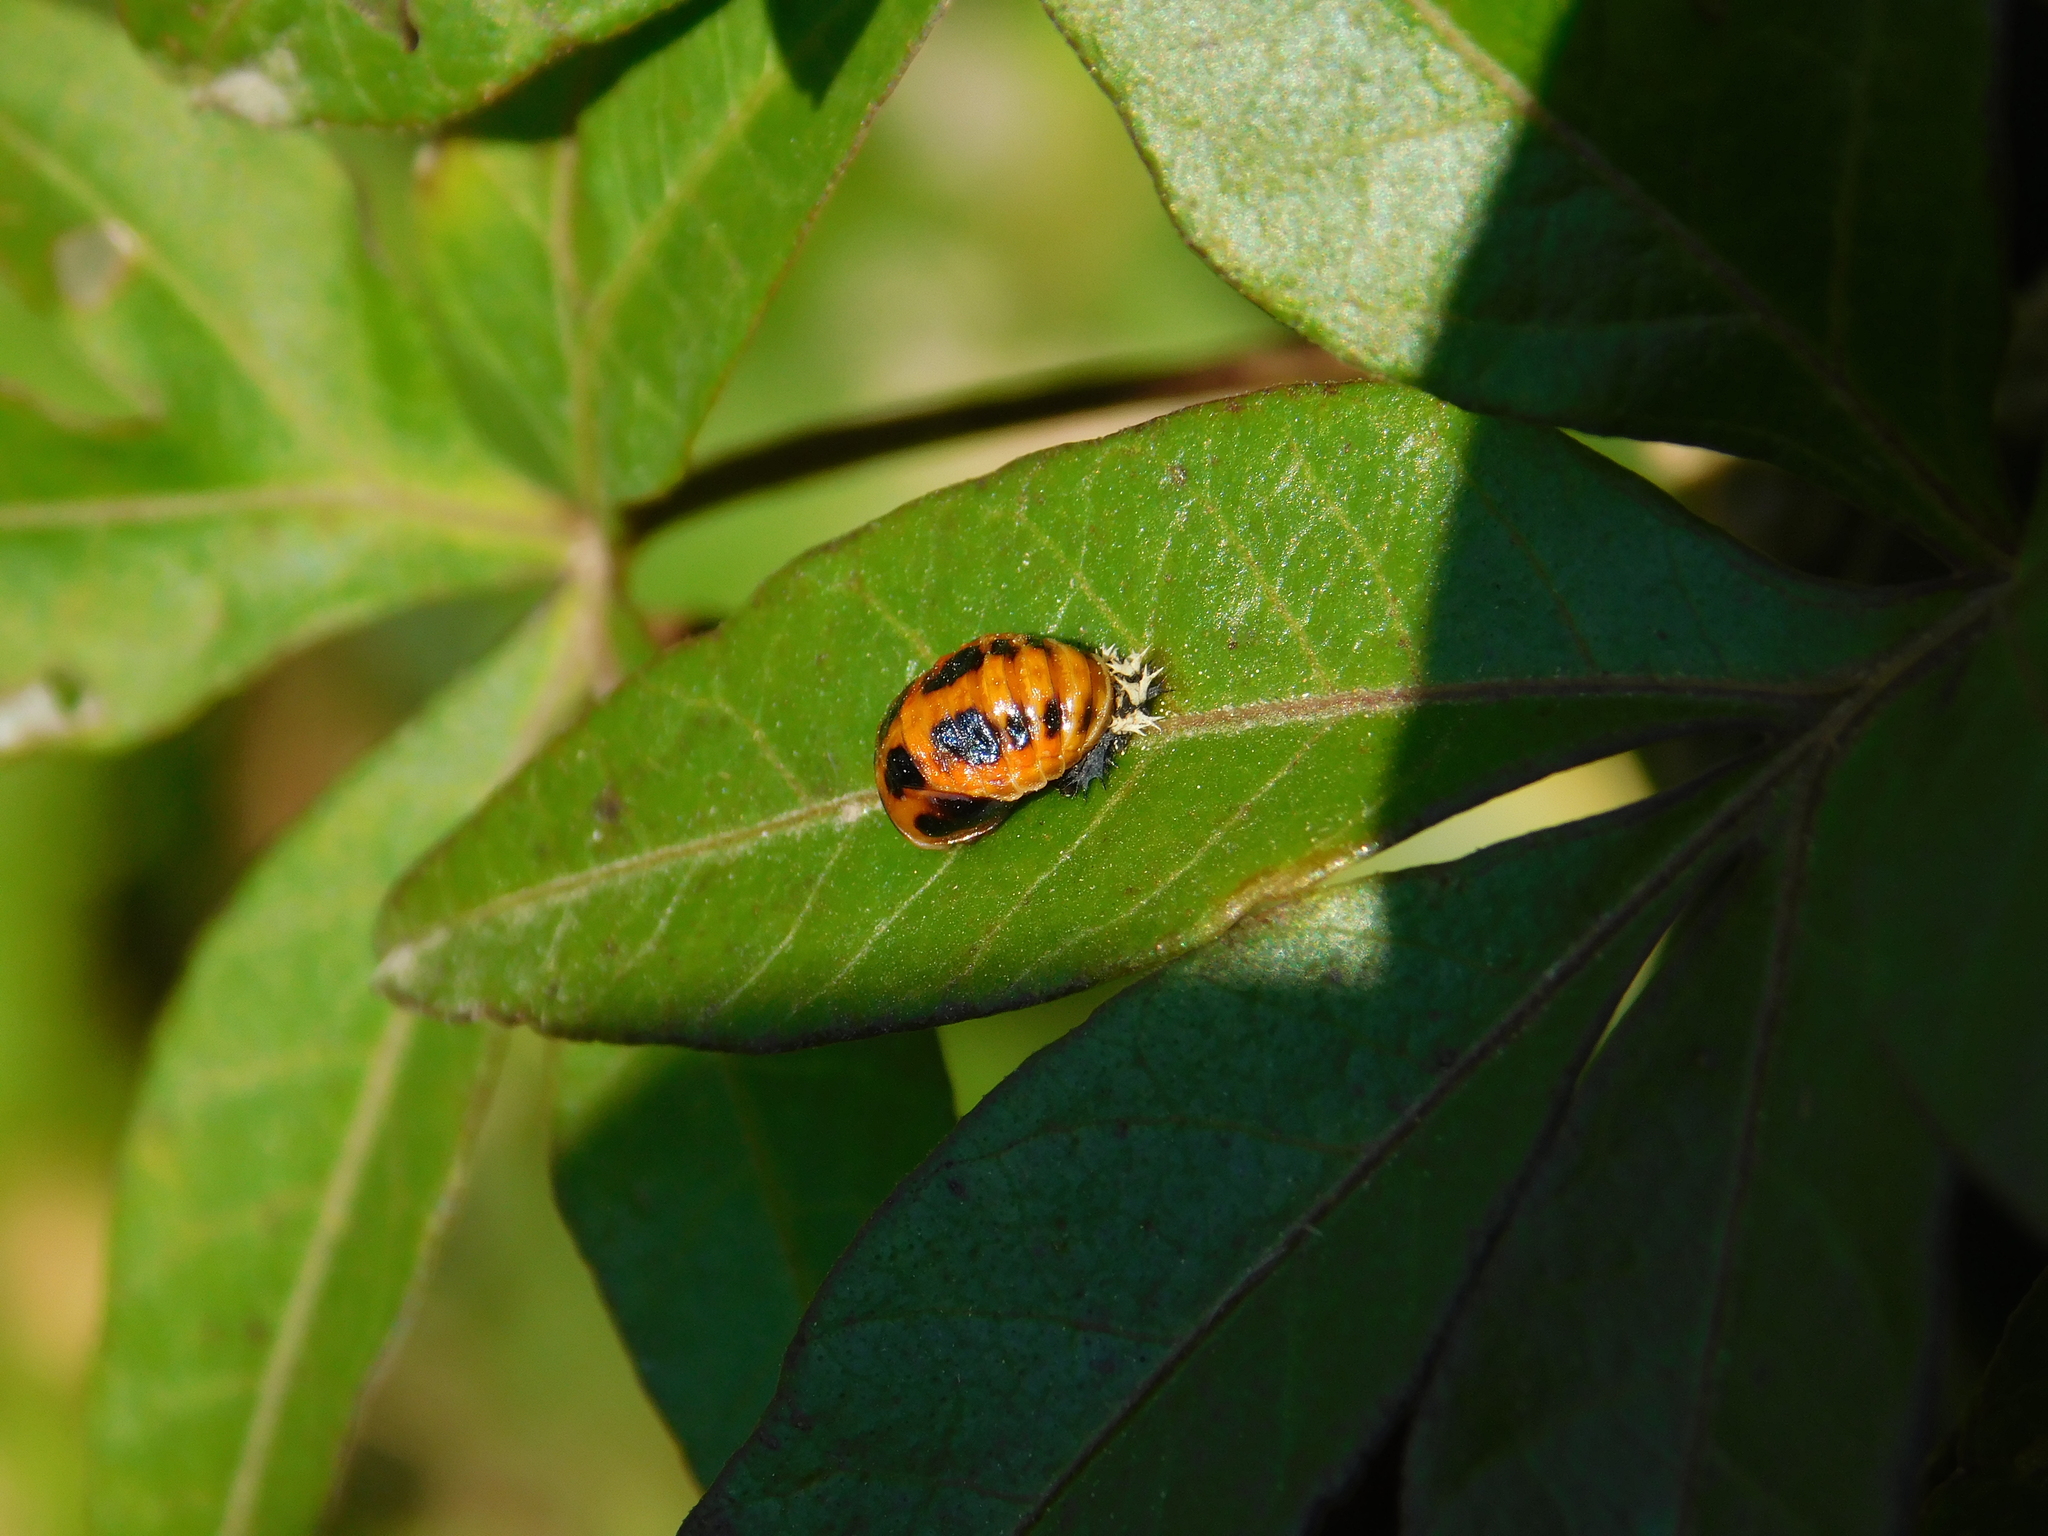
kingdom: Animalia
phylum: Arthropoda
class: Insecta
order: Coleoptera
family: Coccinellidae
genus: Harmonia
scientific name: Harmonia axyridis
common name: Harlequin ladybird
